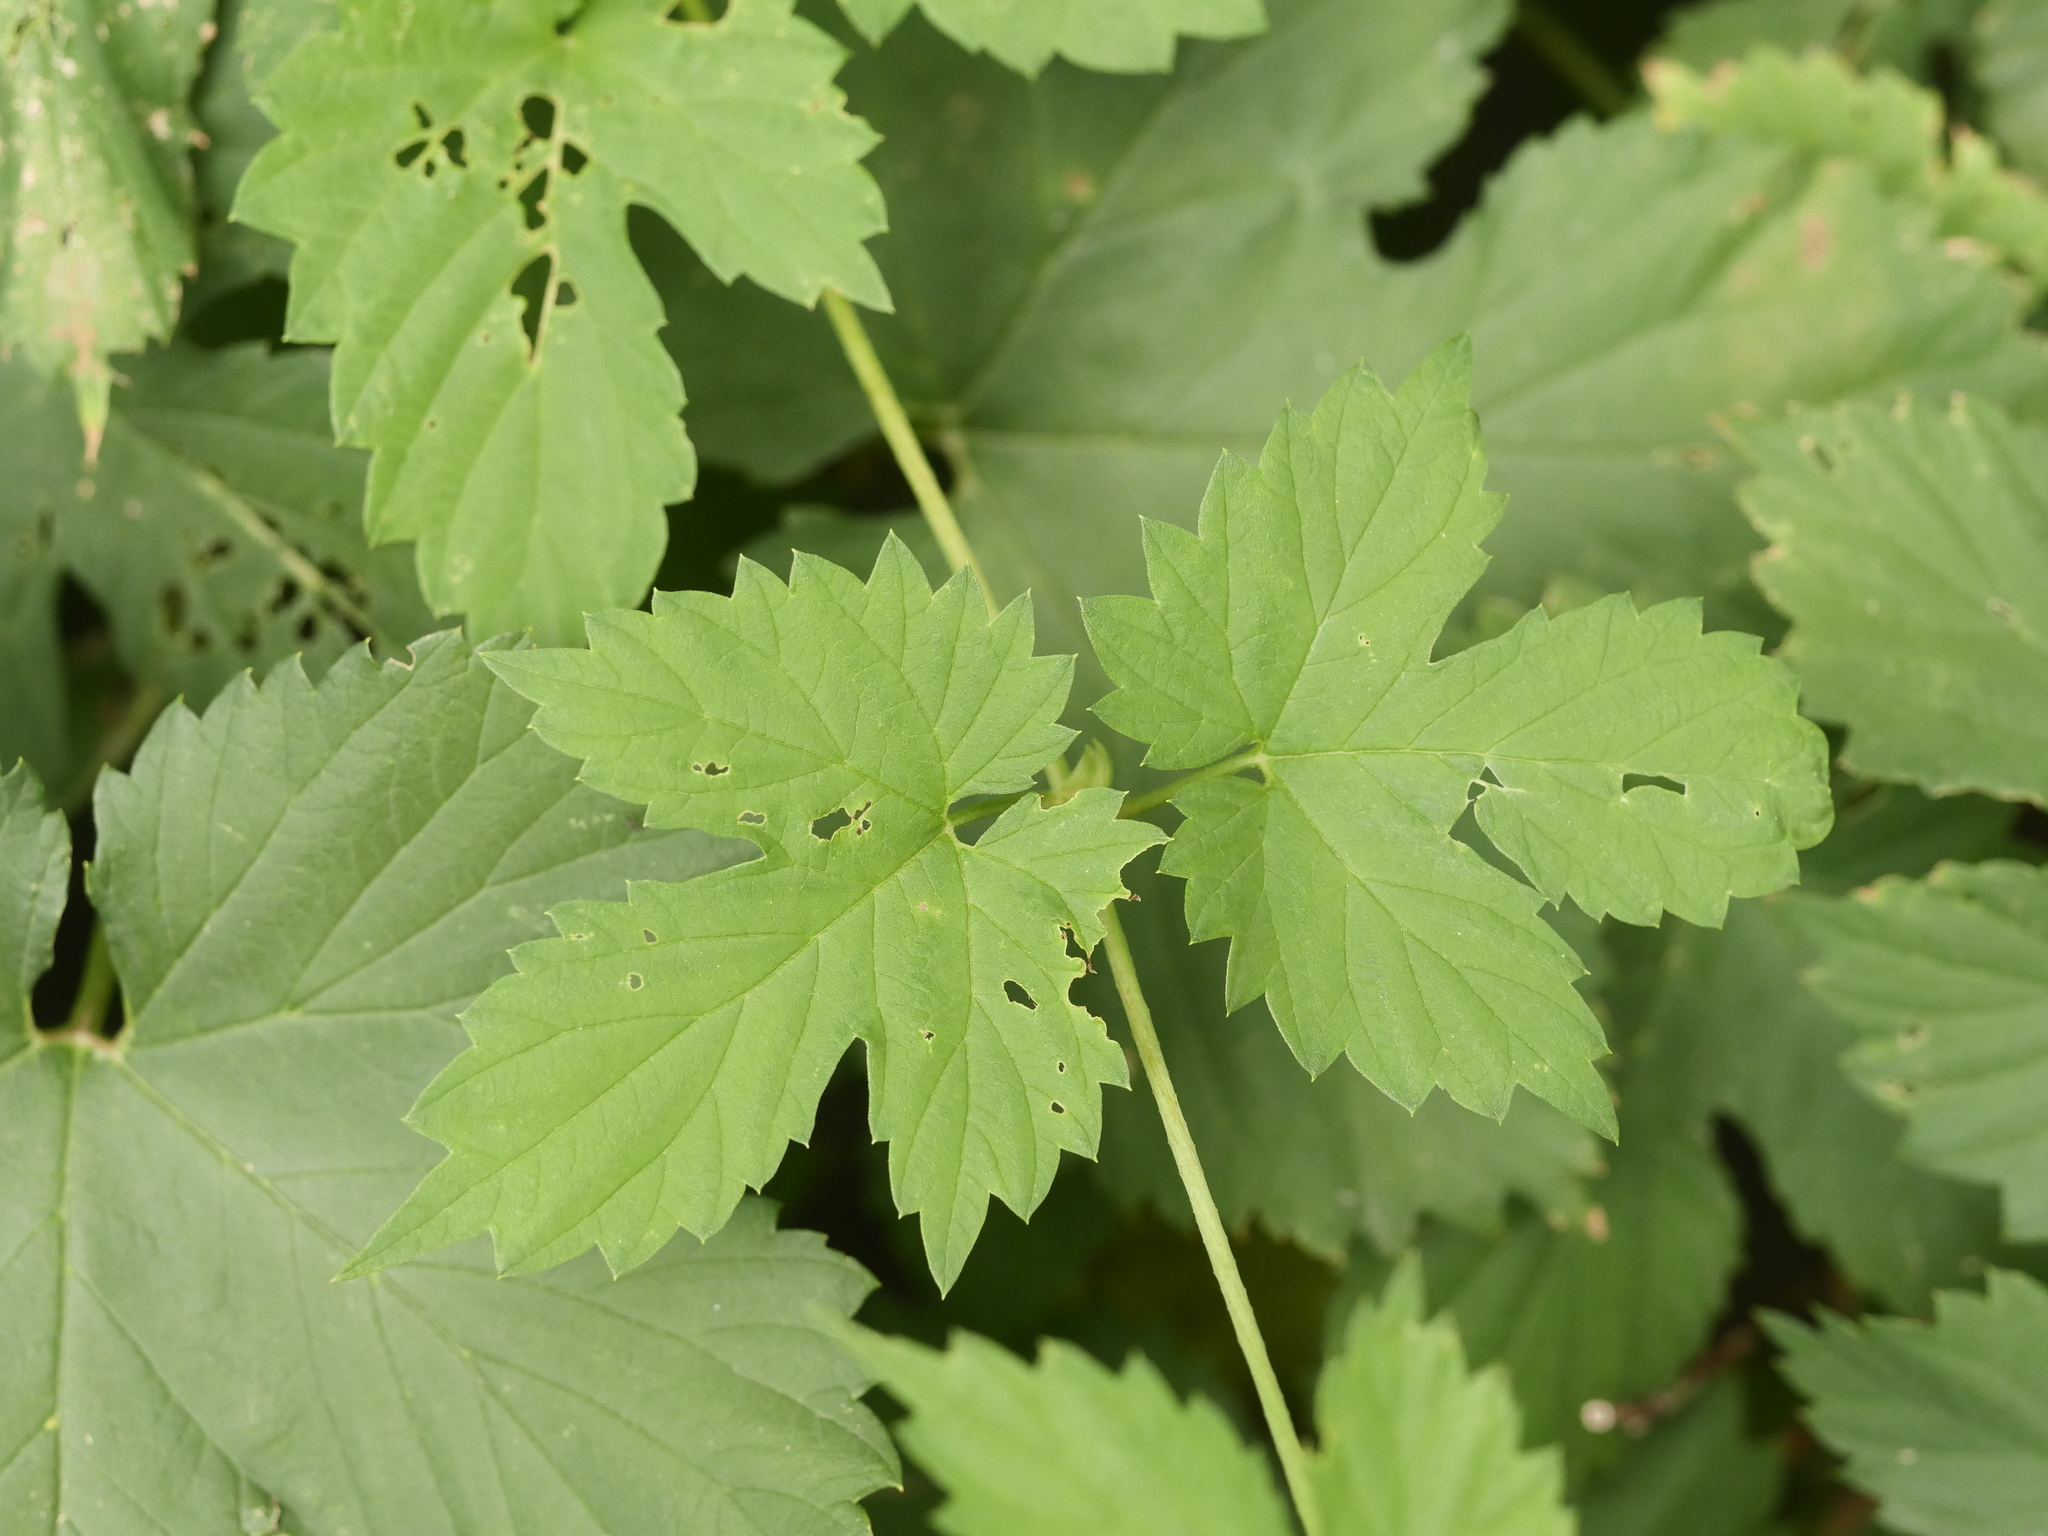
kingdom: Plantae
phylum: Tracheophyta
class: Magnoliopsida
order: Rosales
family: Cannabaceae
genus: Humulus
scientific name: Humulus lupulus
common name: Hop
